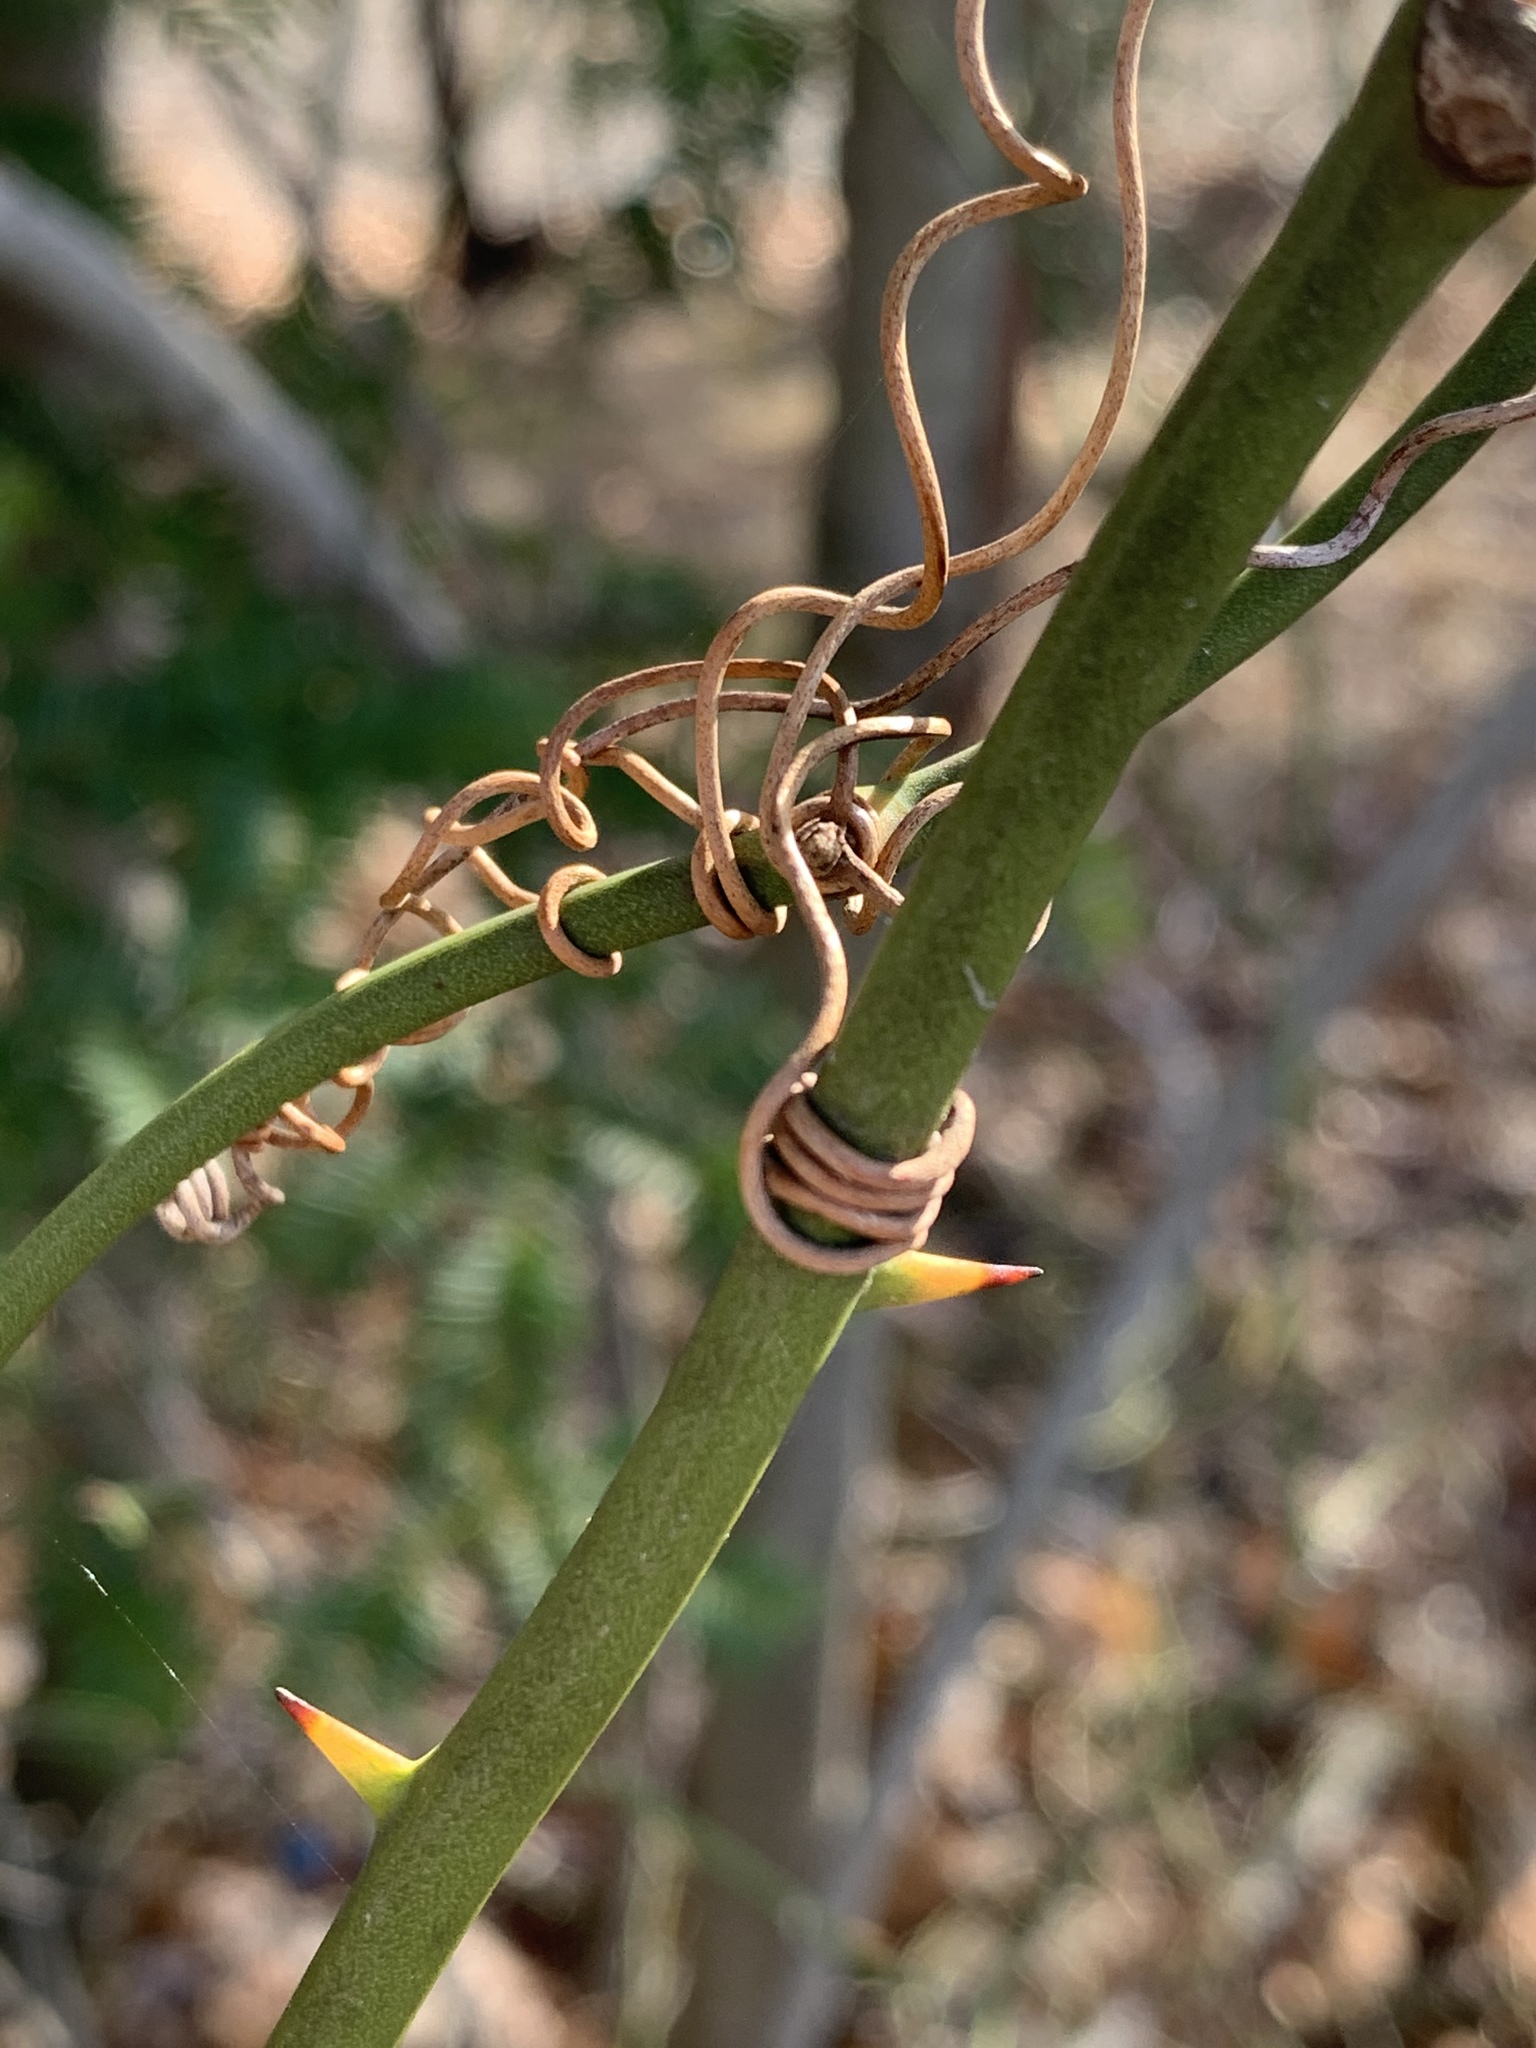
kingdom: Plantae
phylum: Tracheophyta
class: Liliopsida
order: Liliales
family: Smilacaceae
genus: Smilax
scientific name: Smilax rotundifolia
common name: Bullbriar
